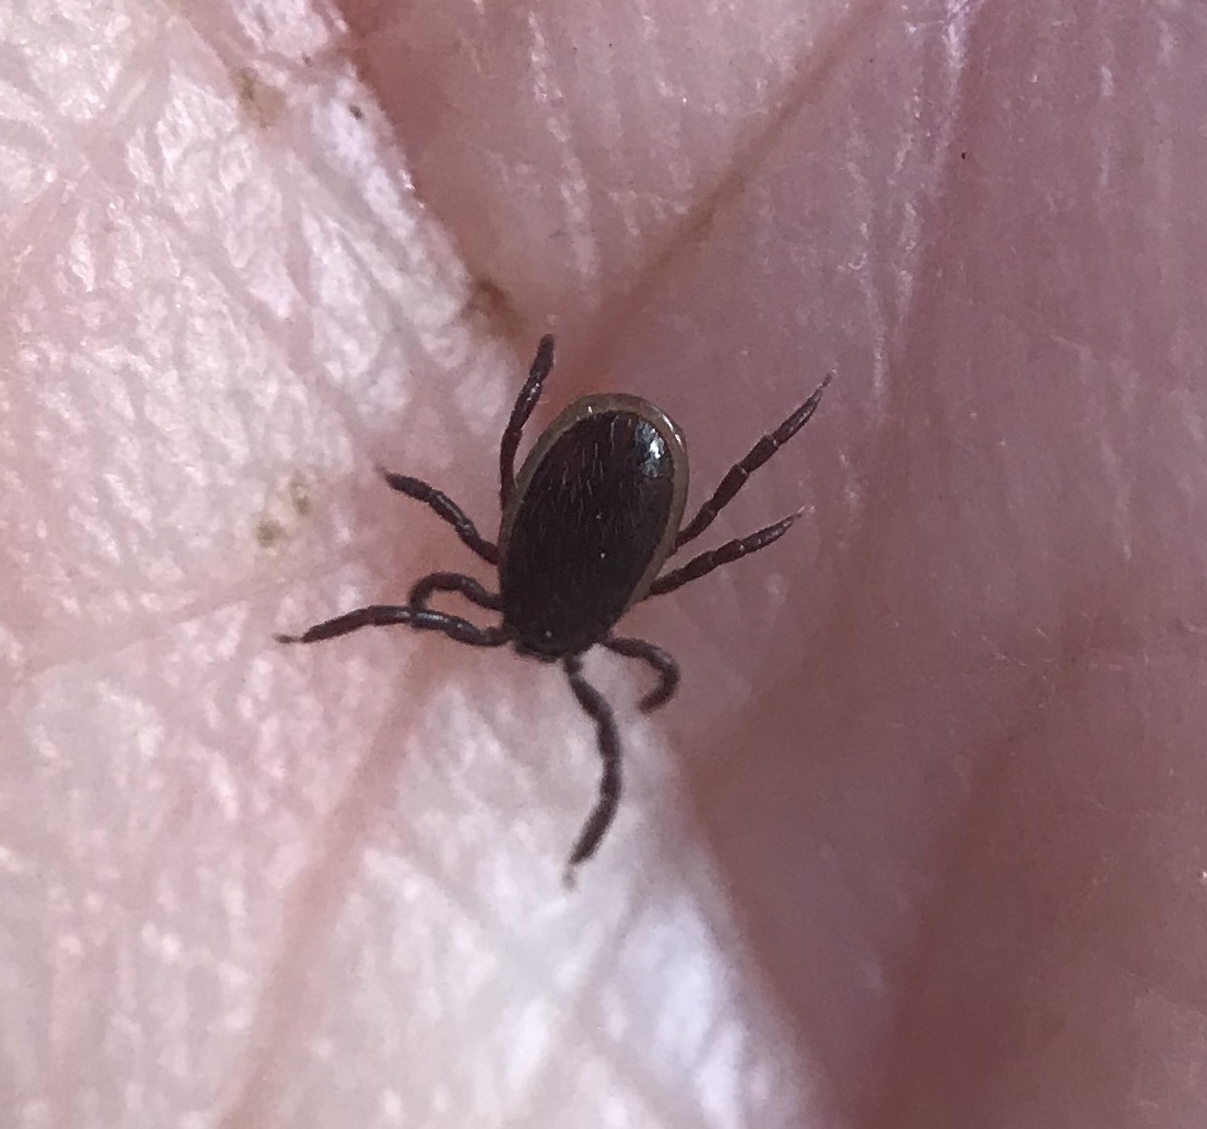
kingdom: Animalia
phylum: Arthropoda
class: Arachnida
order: Ixodida
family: Ixodidae
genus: Ixodes
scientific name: Ixodes pacificus
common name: California black-legged tick
